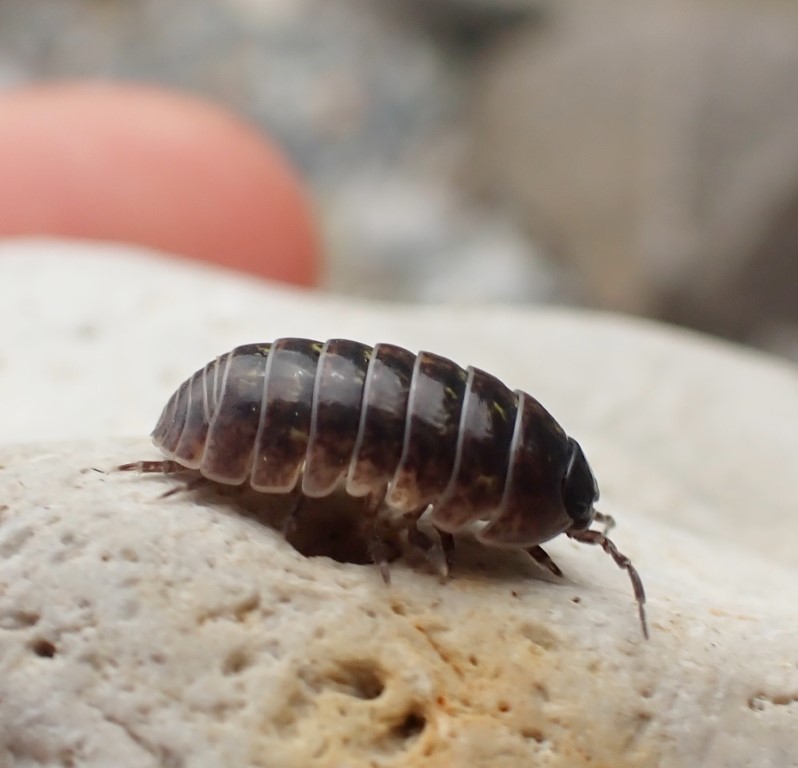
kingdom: Animalia
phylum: Arthropoda
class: Malacostraca
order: Isopoda
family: Armadillidiidae
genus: Armadillidium
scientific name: Armadillidium vulgare
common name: Common pill woodlouse
